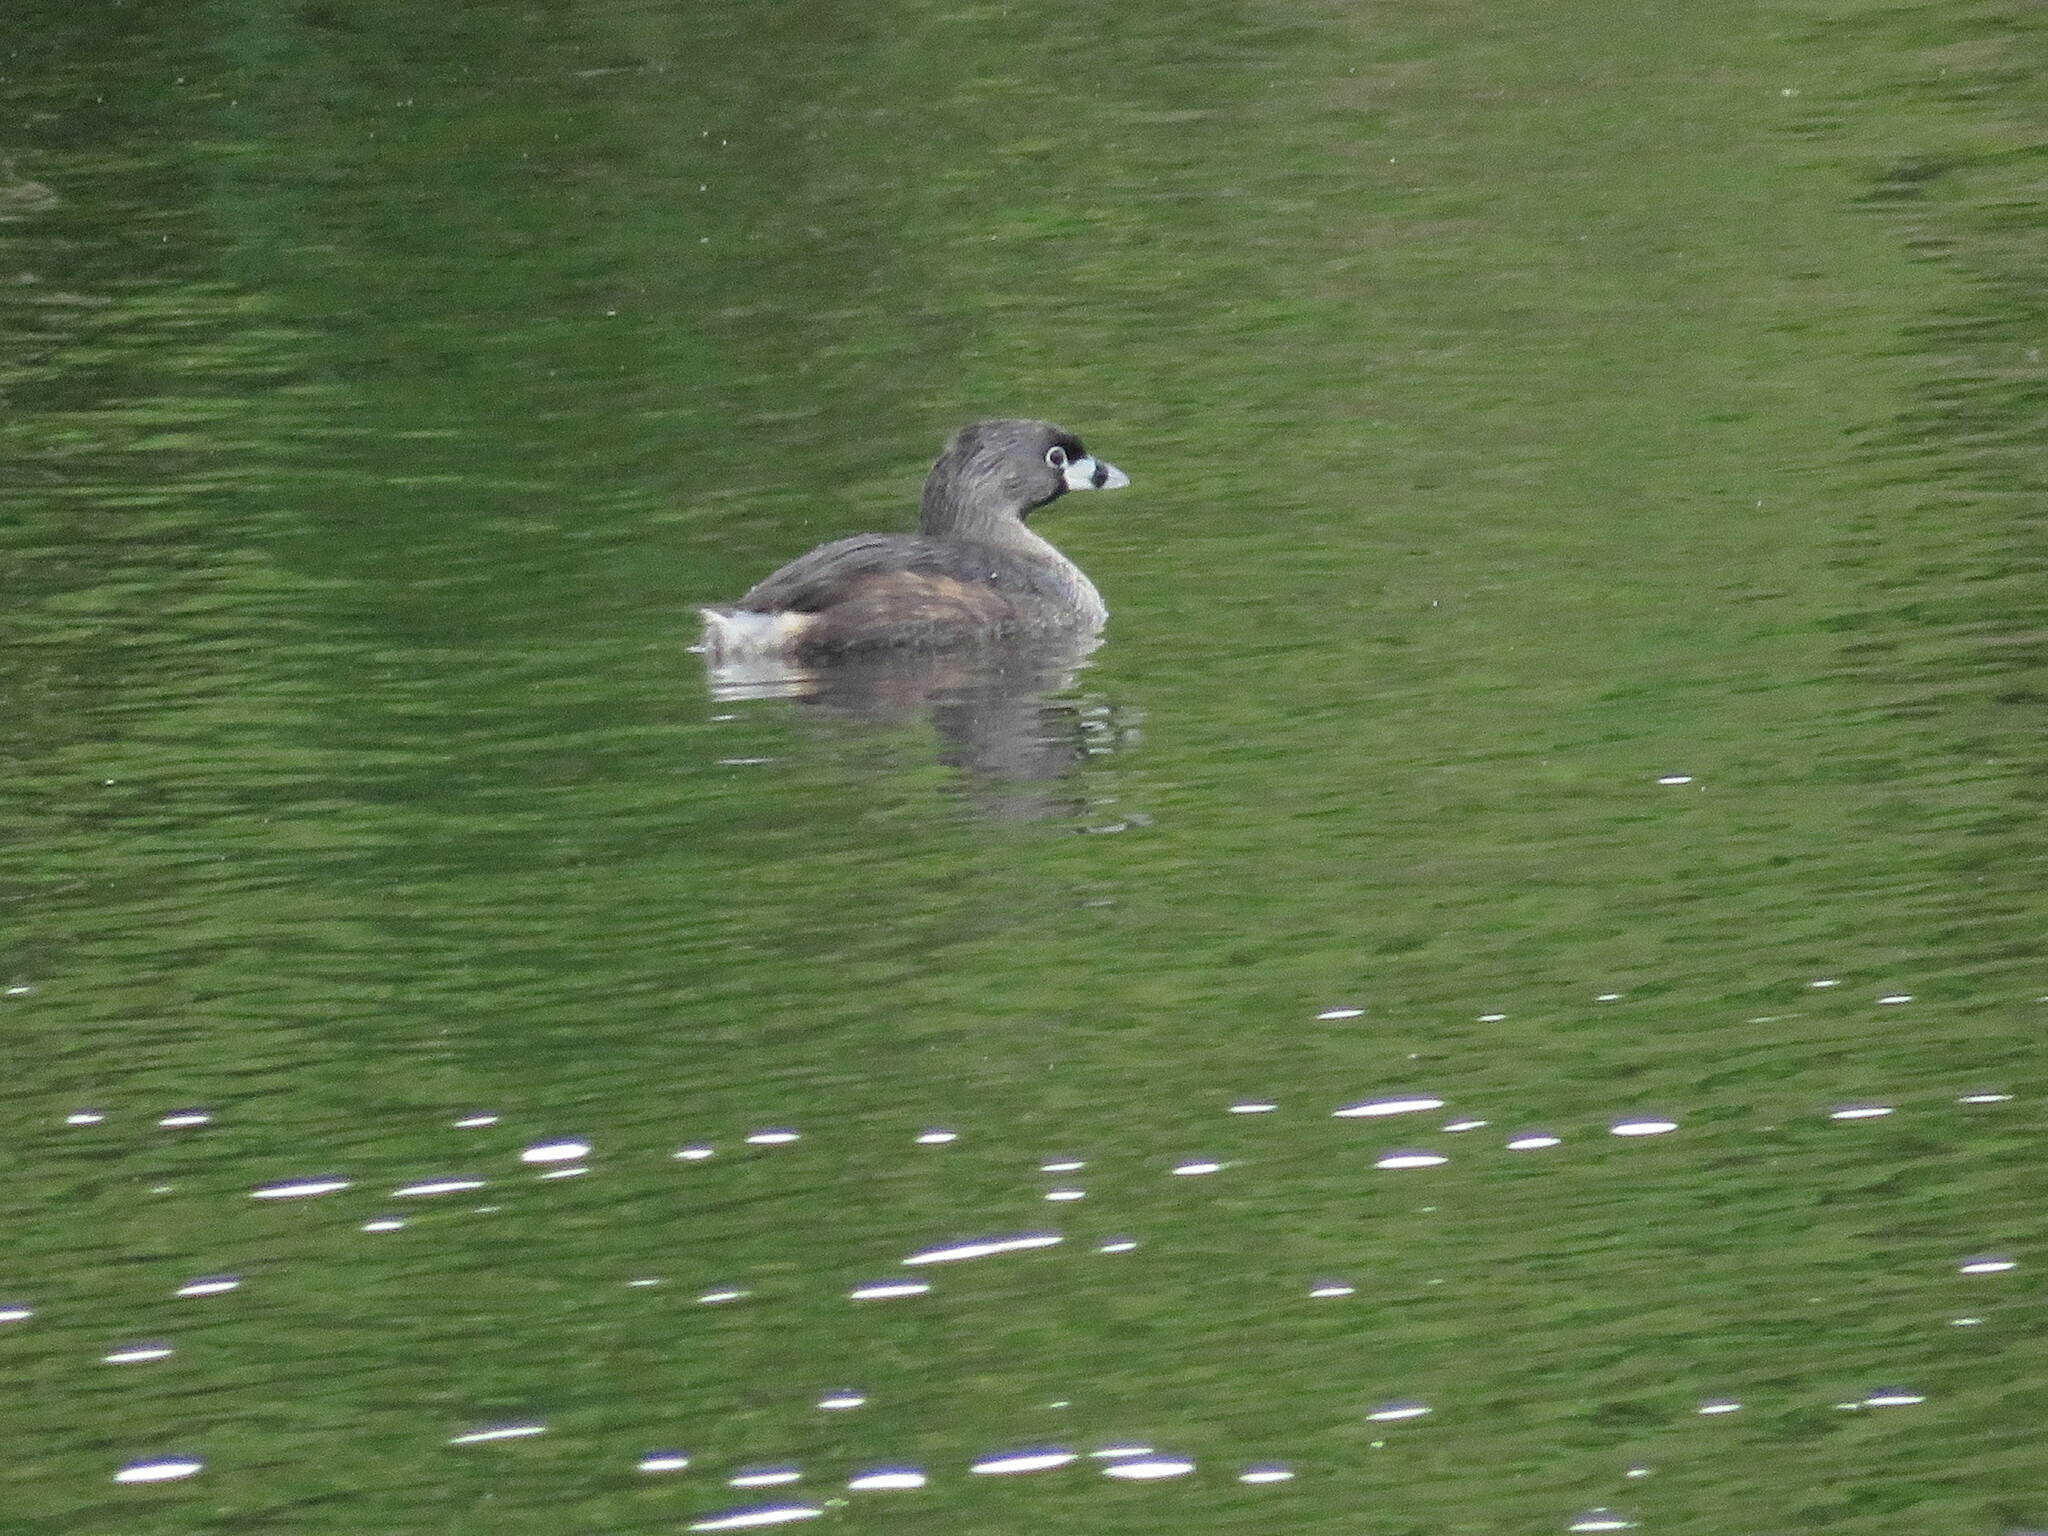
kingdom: Animalia
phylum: Chordata
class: Aves
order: Podicipediformes
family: Podicipedidae
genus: Podilymbus
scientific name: Podilymbus podiceps
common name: Pied-billed grebe
